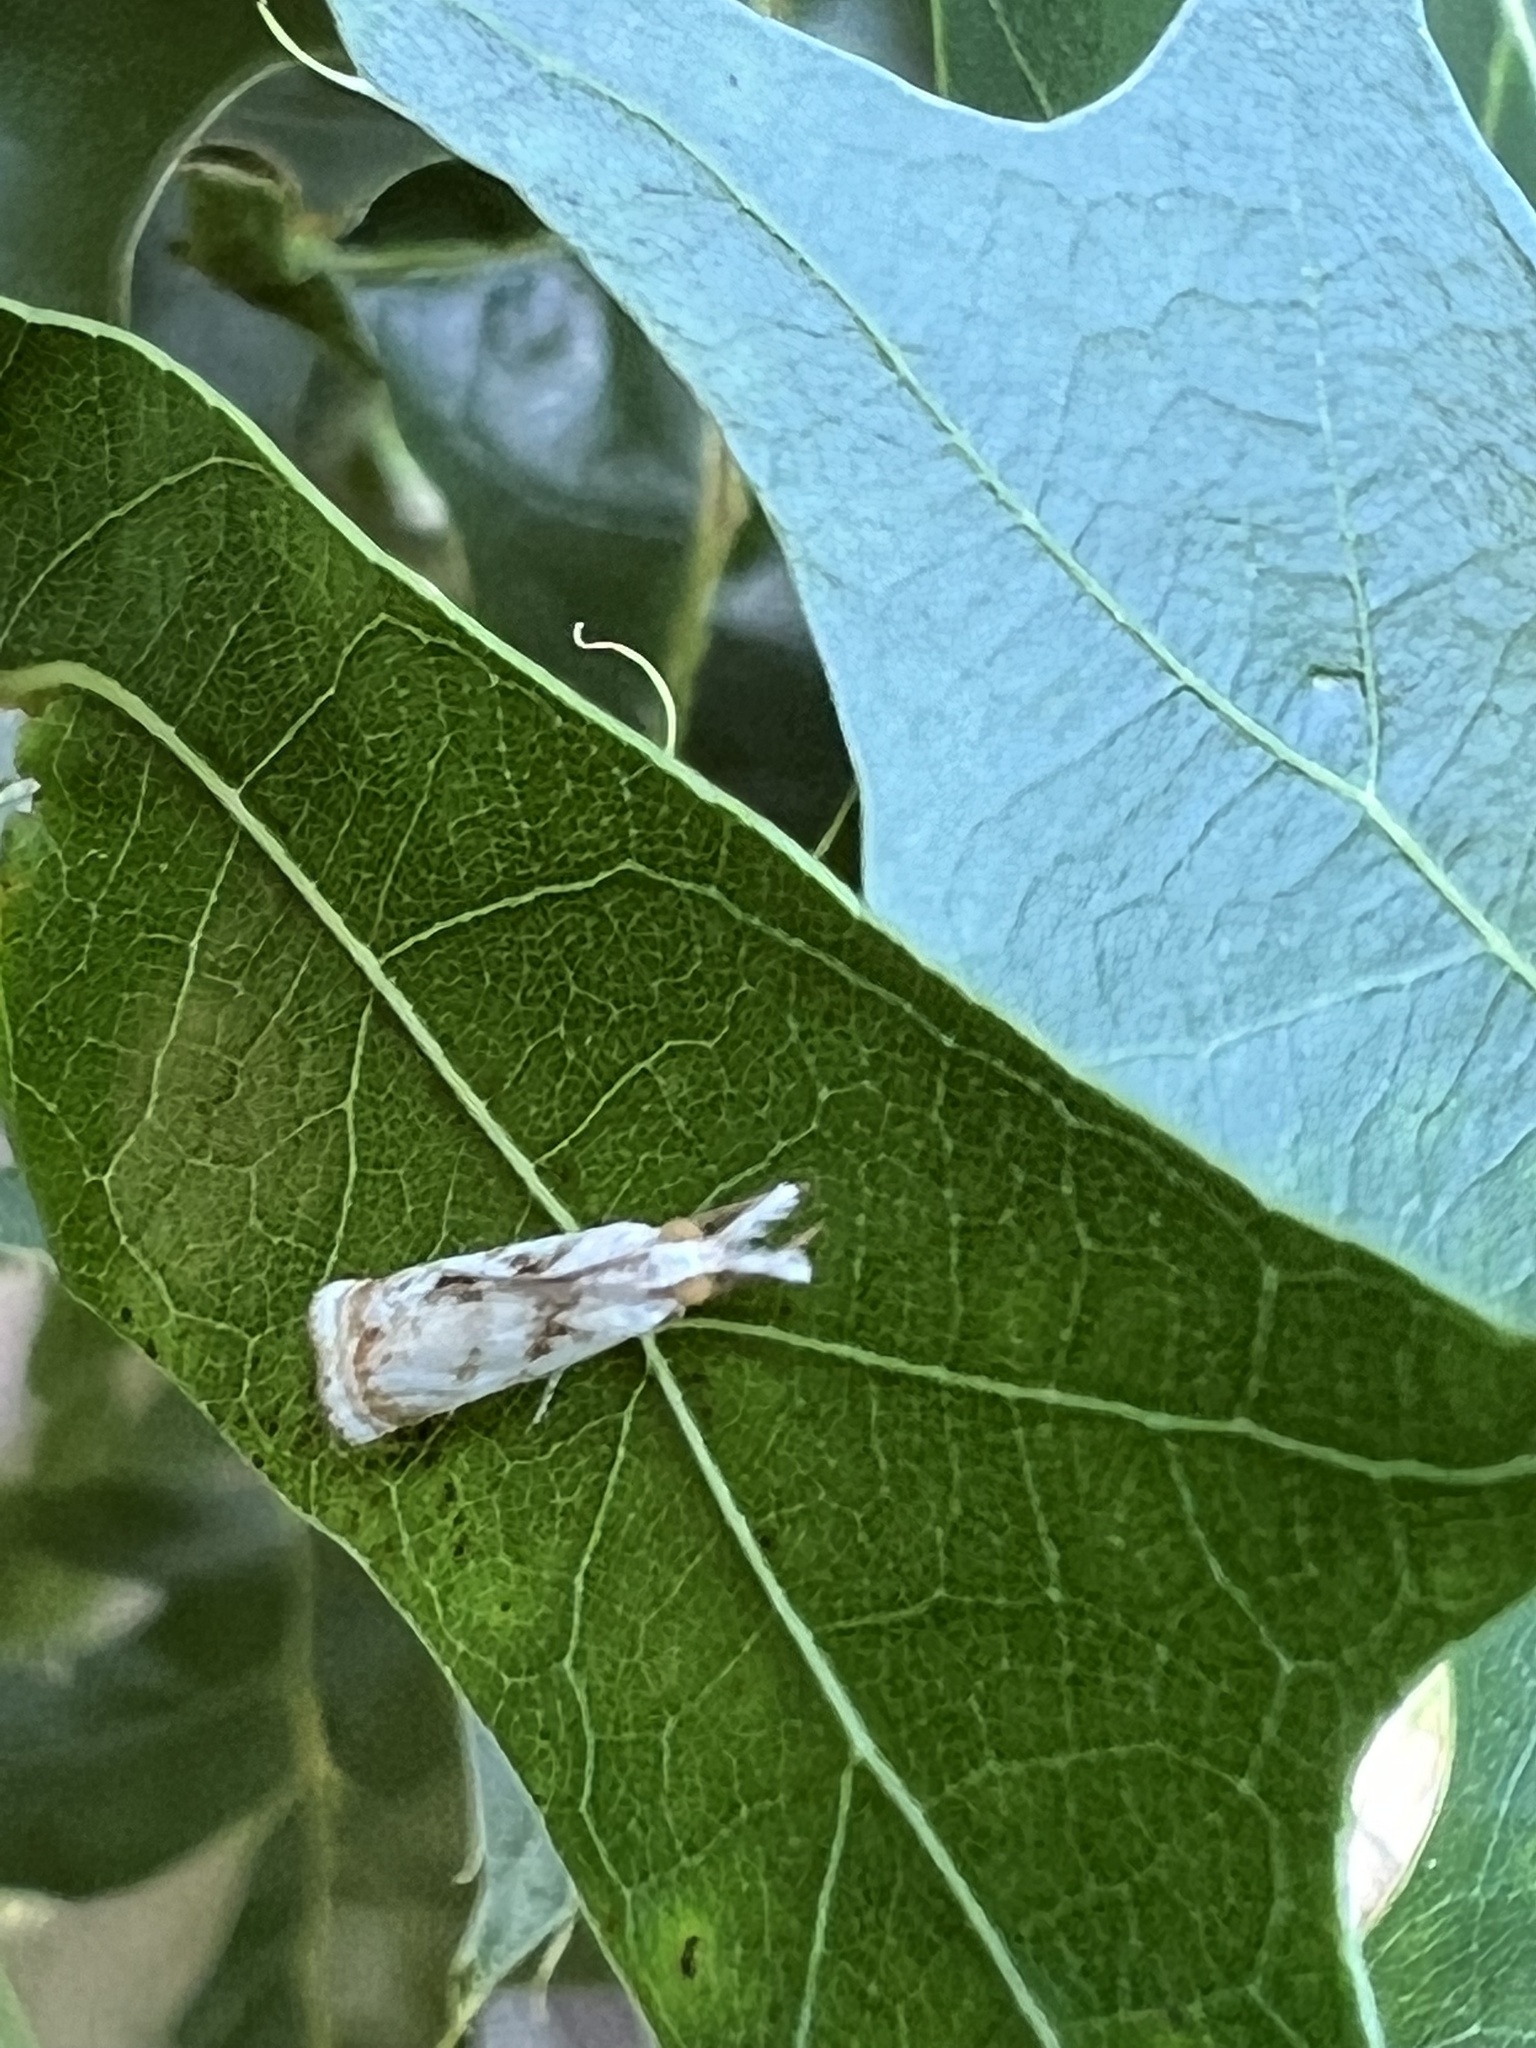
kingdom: Animalia
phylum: Arthropoda
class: Insecta
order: Lepidoptera
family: Crambidae
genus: Microcrambus
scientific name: Microcrambus elegans
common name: Elegant grass-veneer
